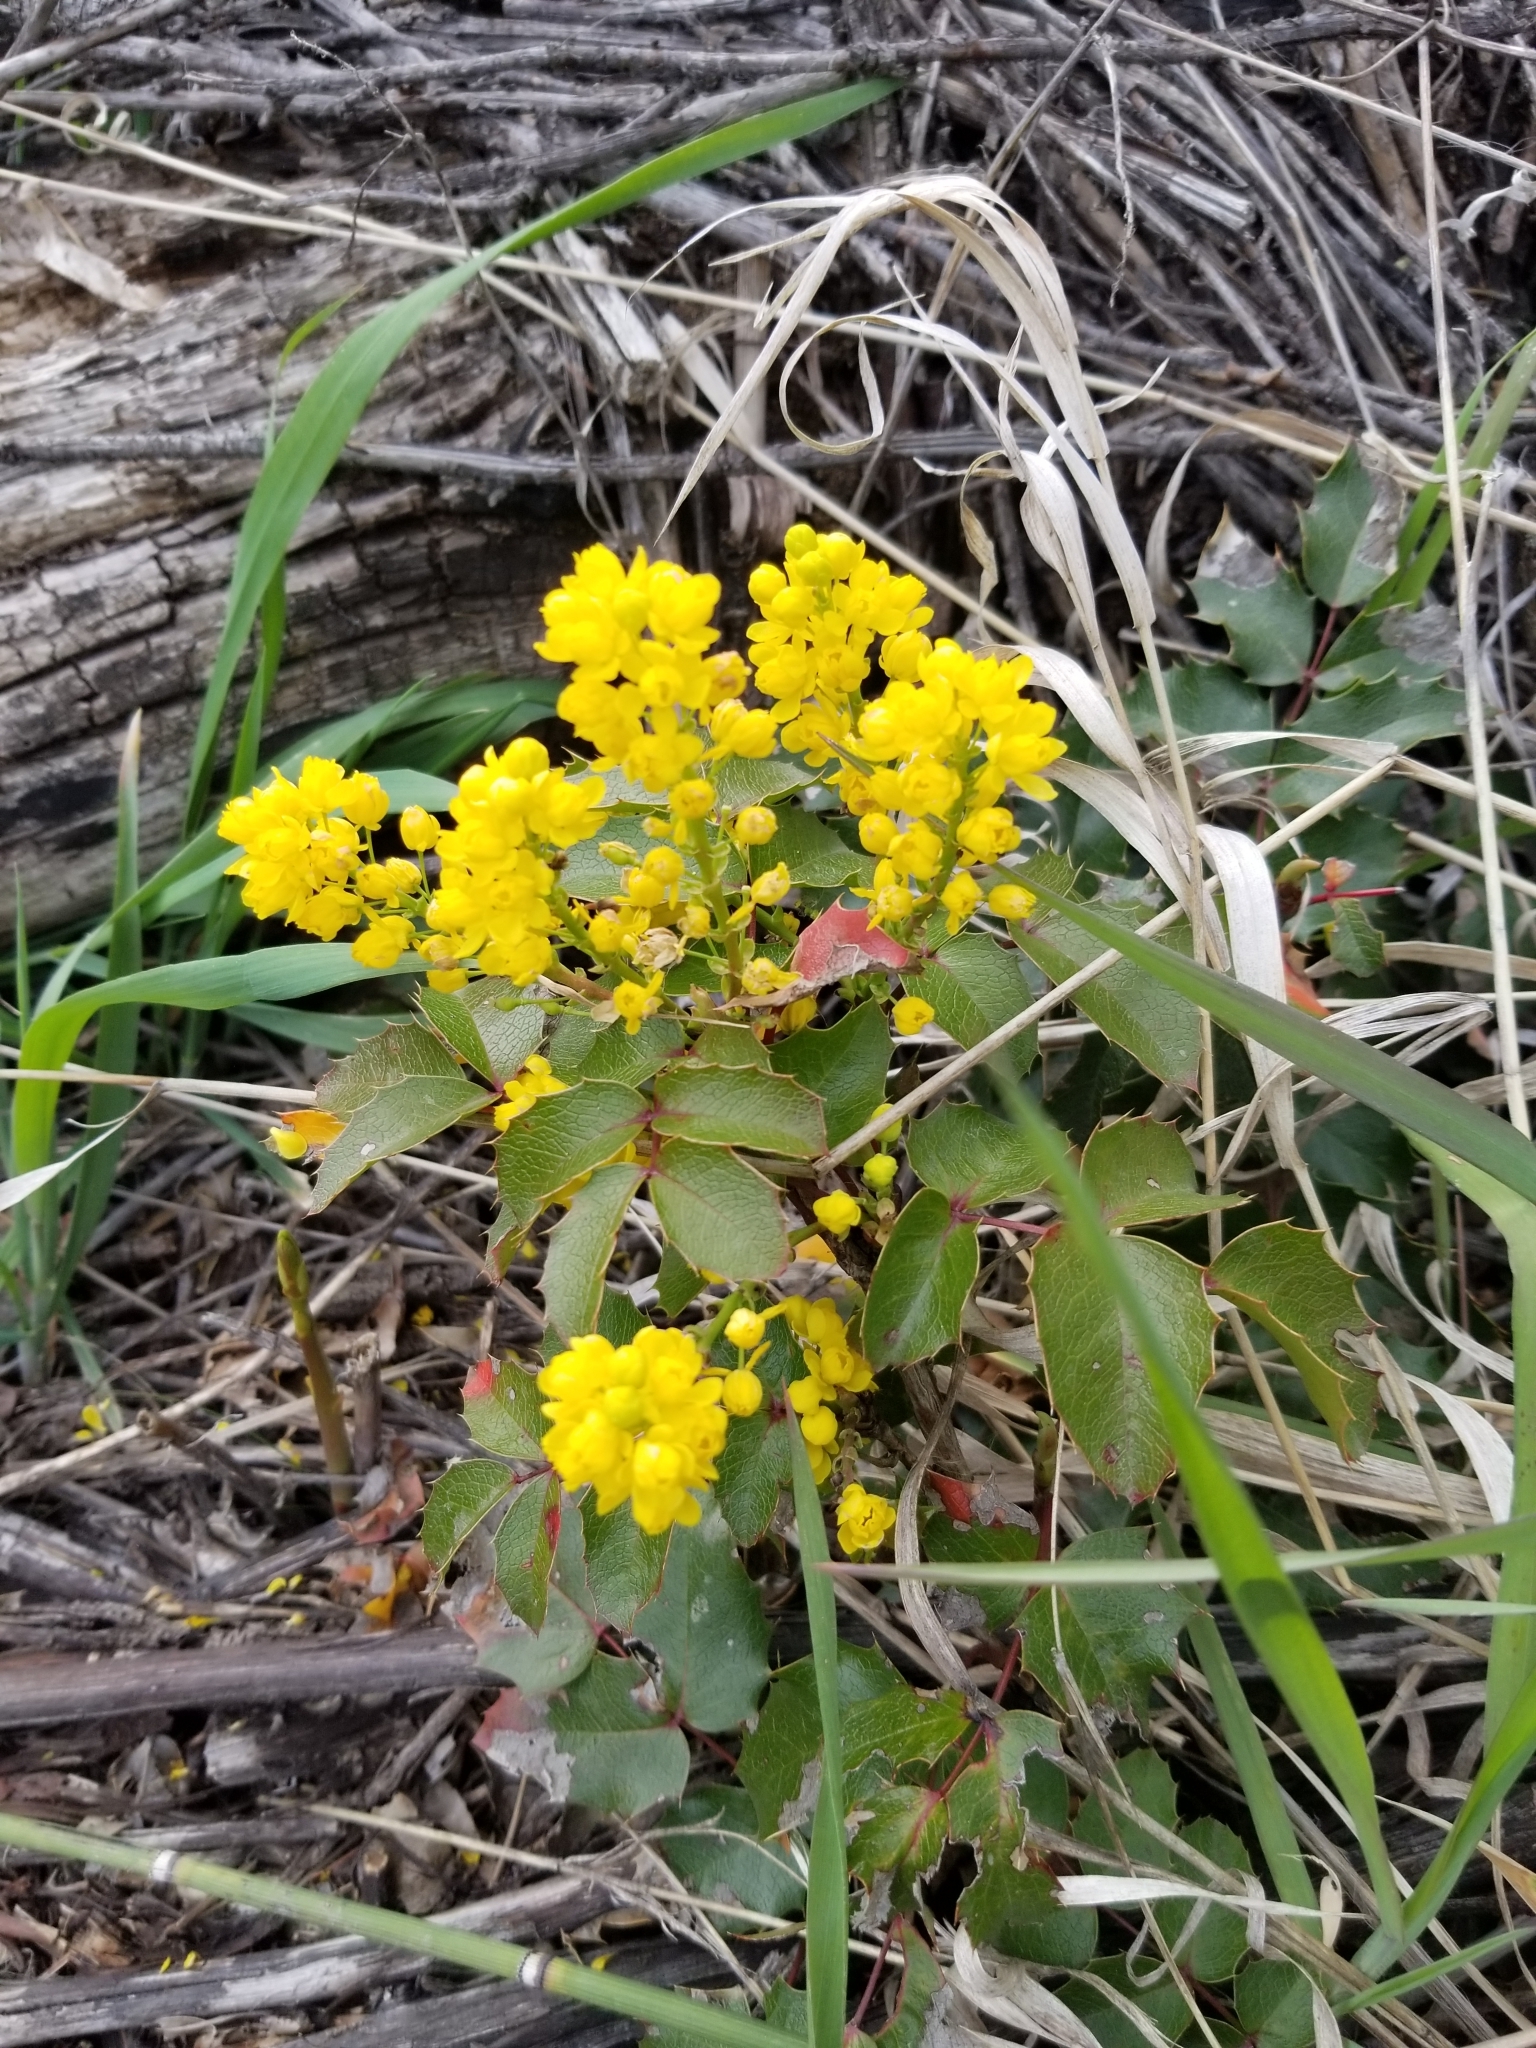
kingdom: Plantae
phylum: Tracheophyta
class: Magnoliopsida
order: Ranunculales
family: Berberidaceae
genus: Mahonia
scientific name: Mahonia aquifolium
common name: Oregon-grape
